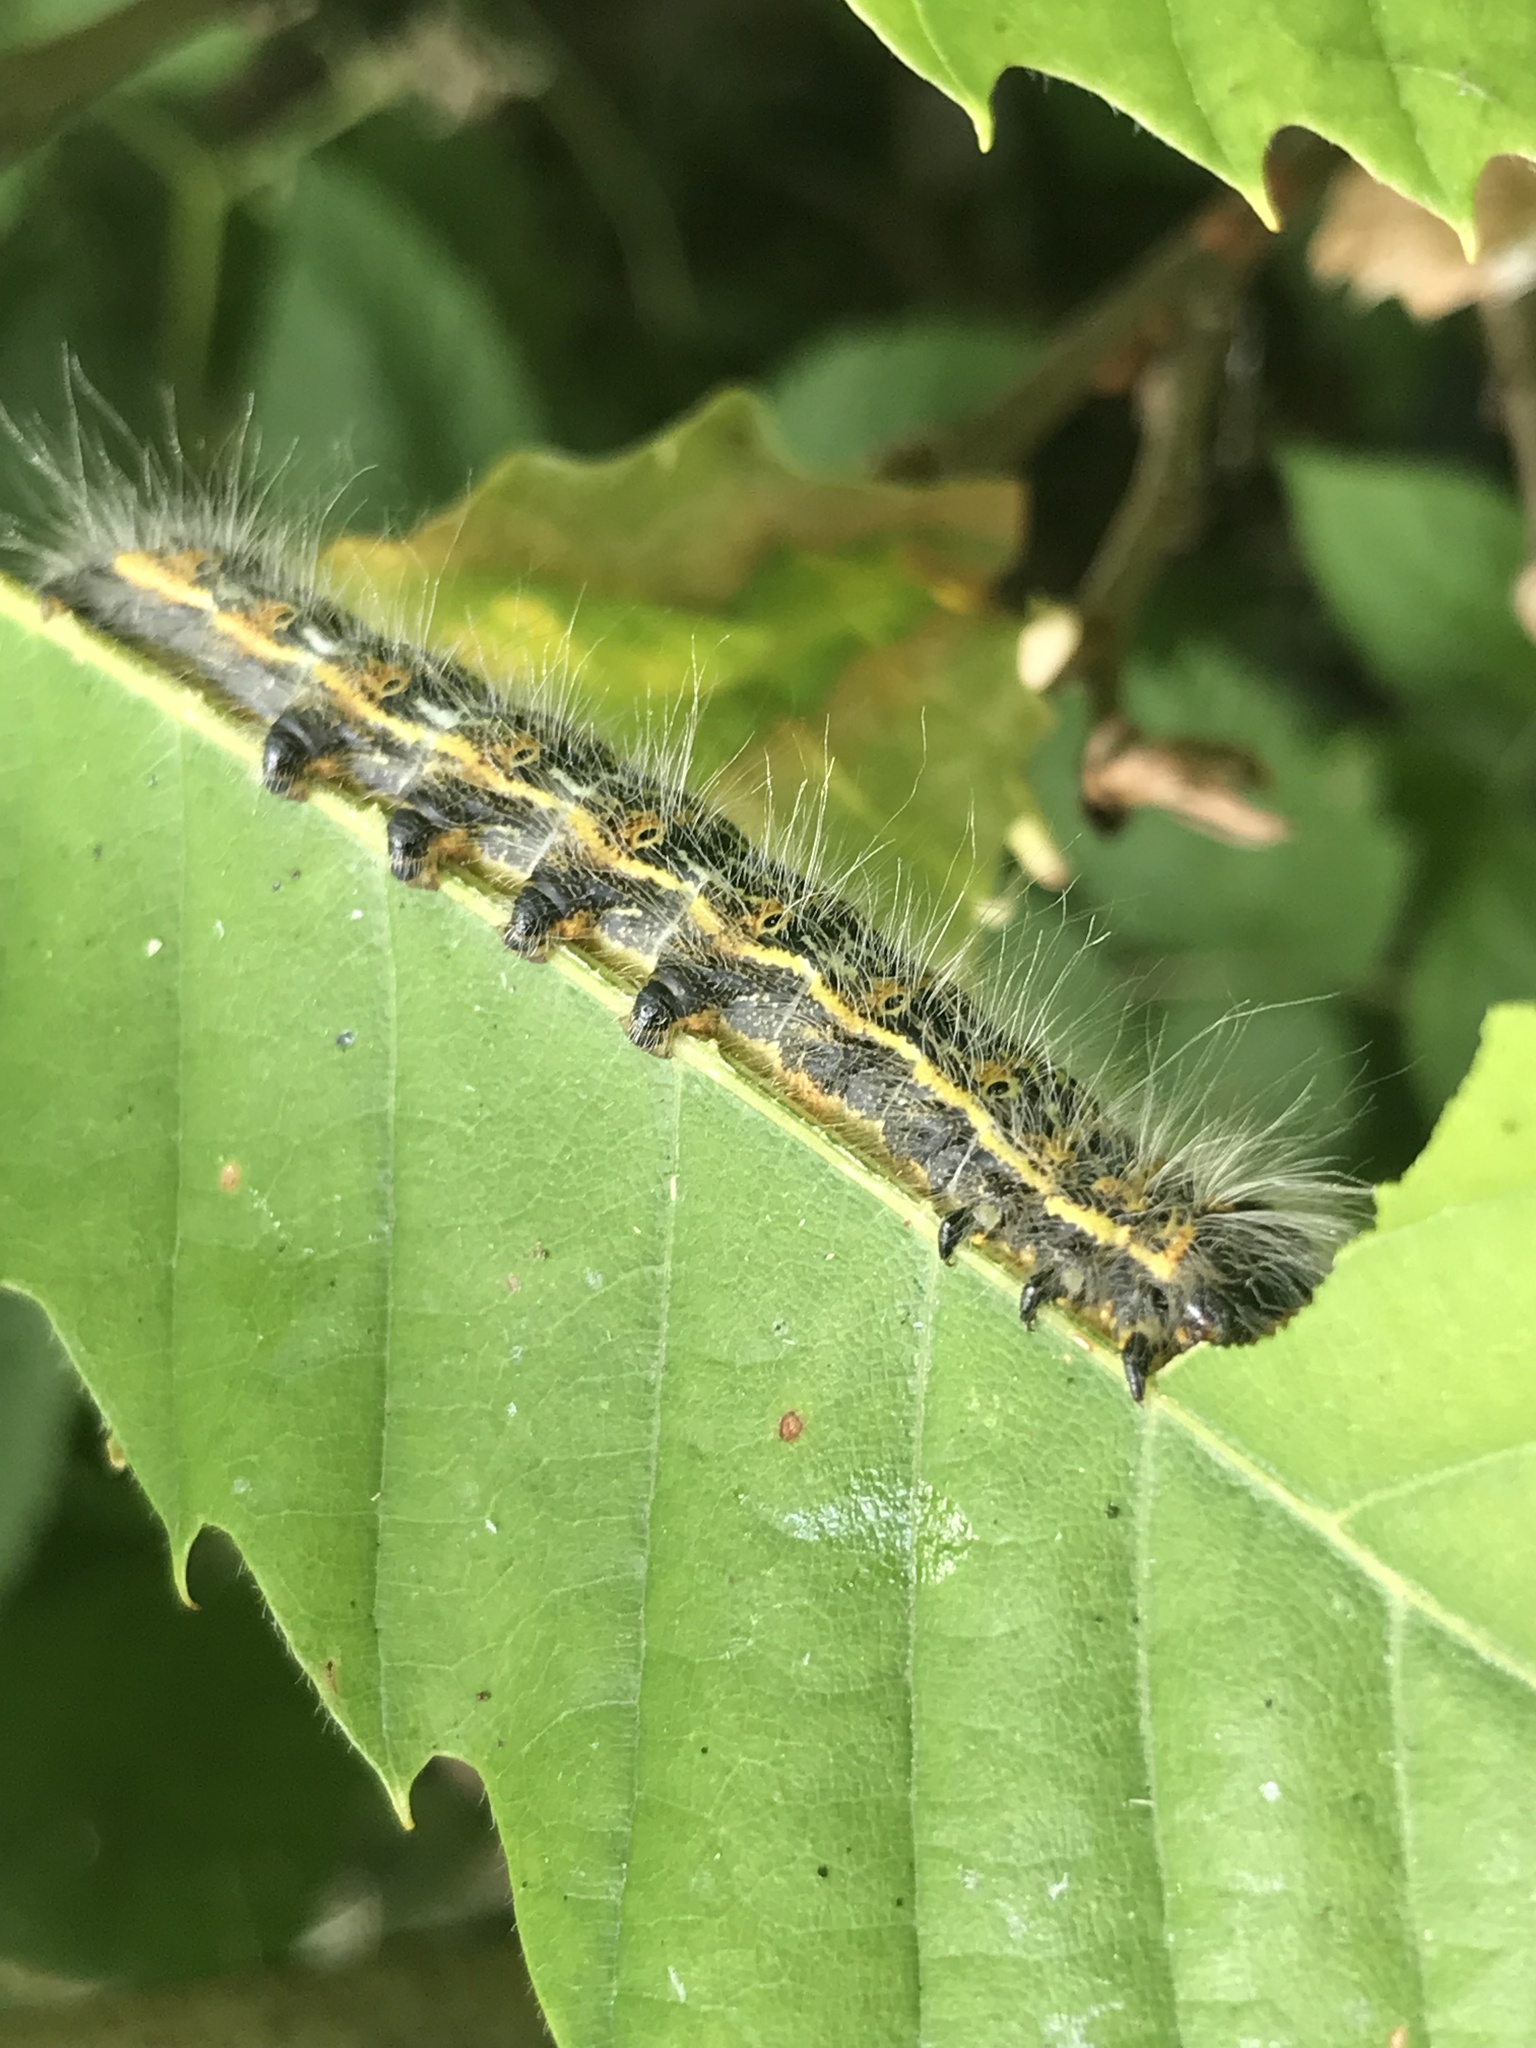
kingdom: Animalia
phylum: Arthropoda
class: Insecta
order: Lepidoptera
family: Notodontidae
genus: Phalera
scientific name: Phalera bucephala
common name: Buff-tip
